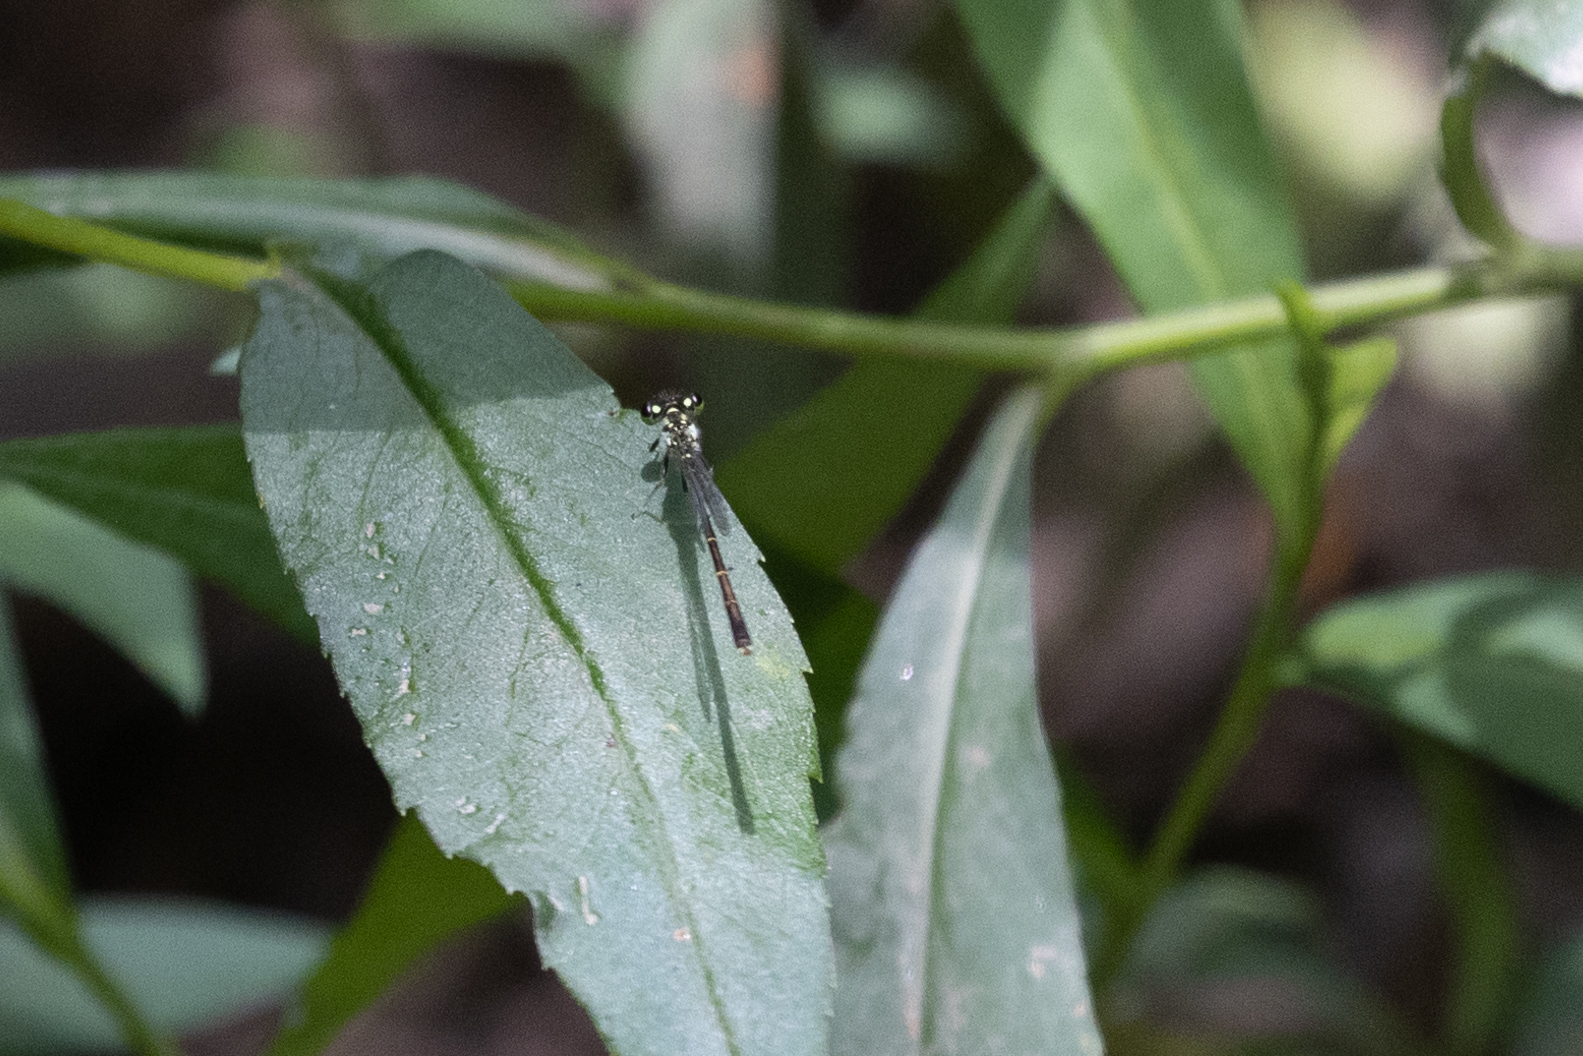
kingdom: Animalia
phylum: Arthropoda
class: Insecta
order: Odonata
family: Coenagrionidae
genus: Ischnura
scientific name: Ischnura posita
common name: Fragile forktail
